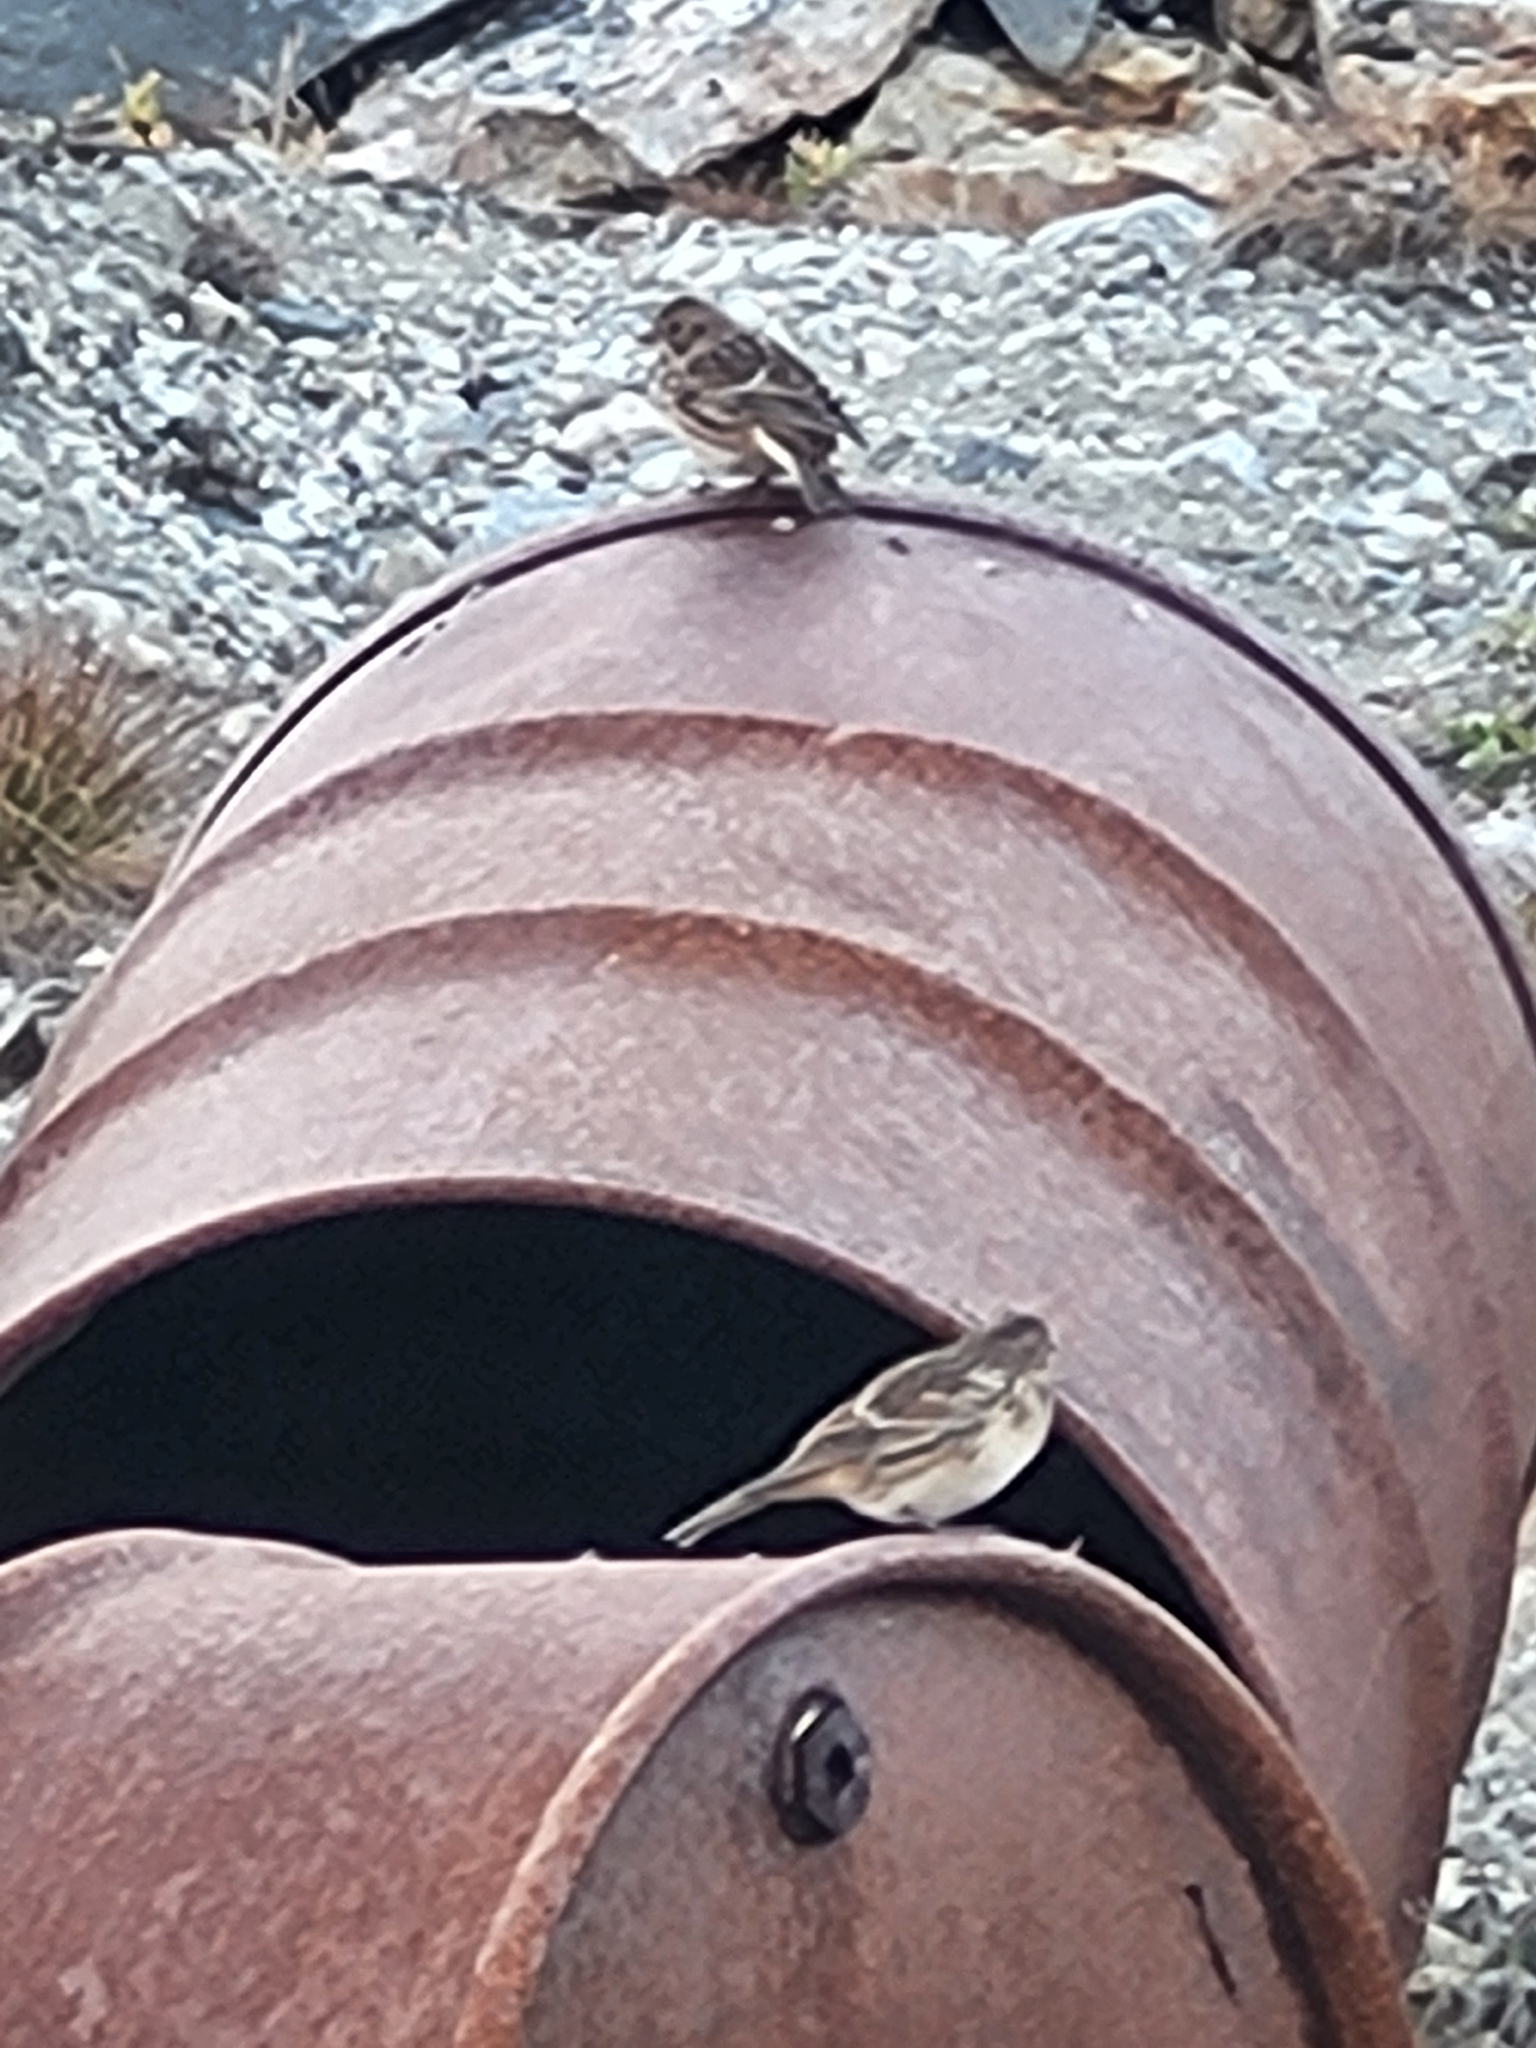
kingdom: Animalia
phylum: Chordata
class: Aves
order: Passeriformes
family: Calcariidae
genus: Calcarius
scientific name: Calcarius lapponicus
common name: Lapland longspur
